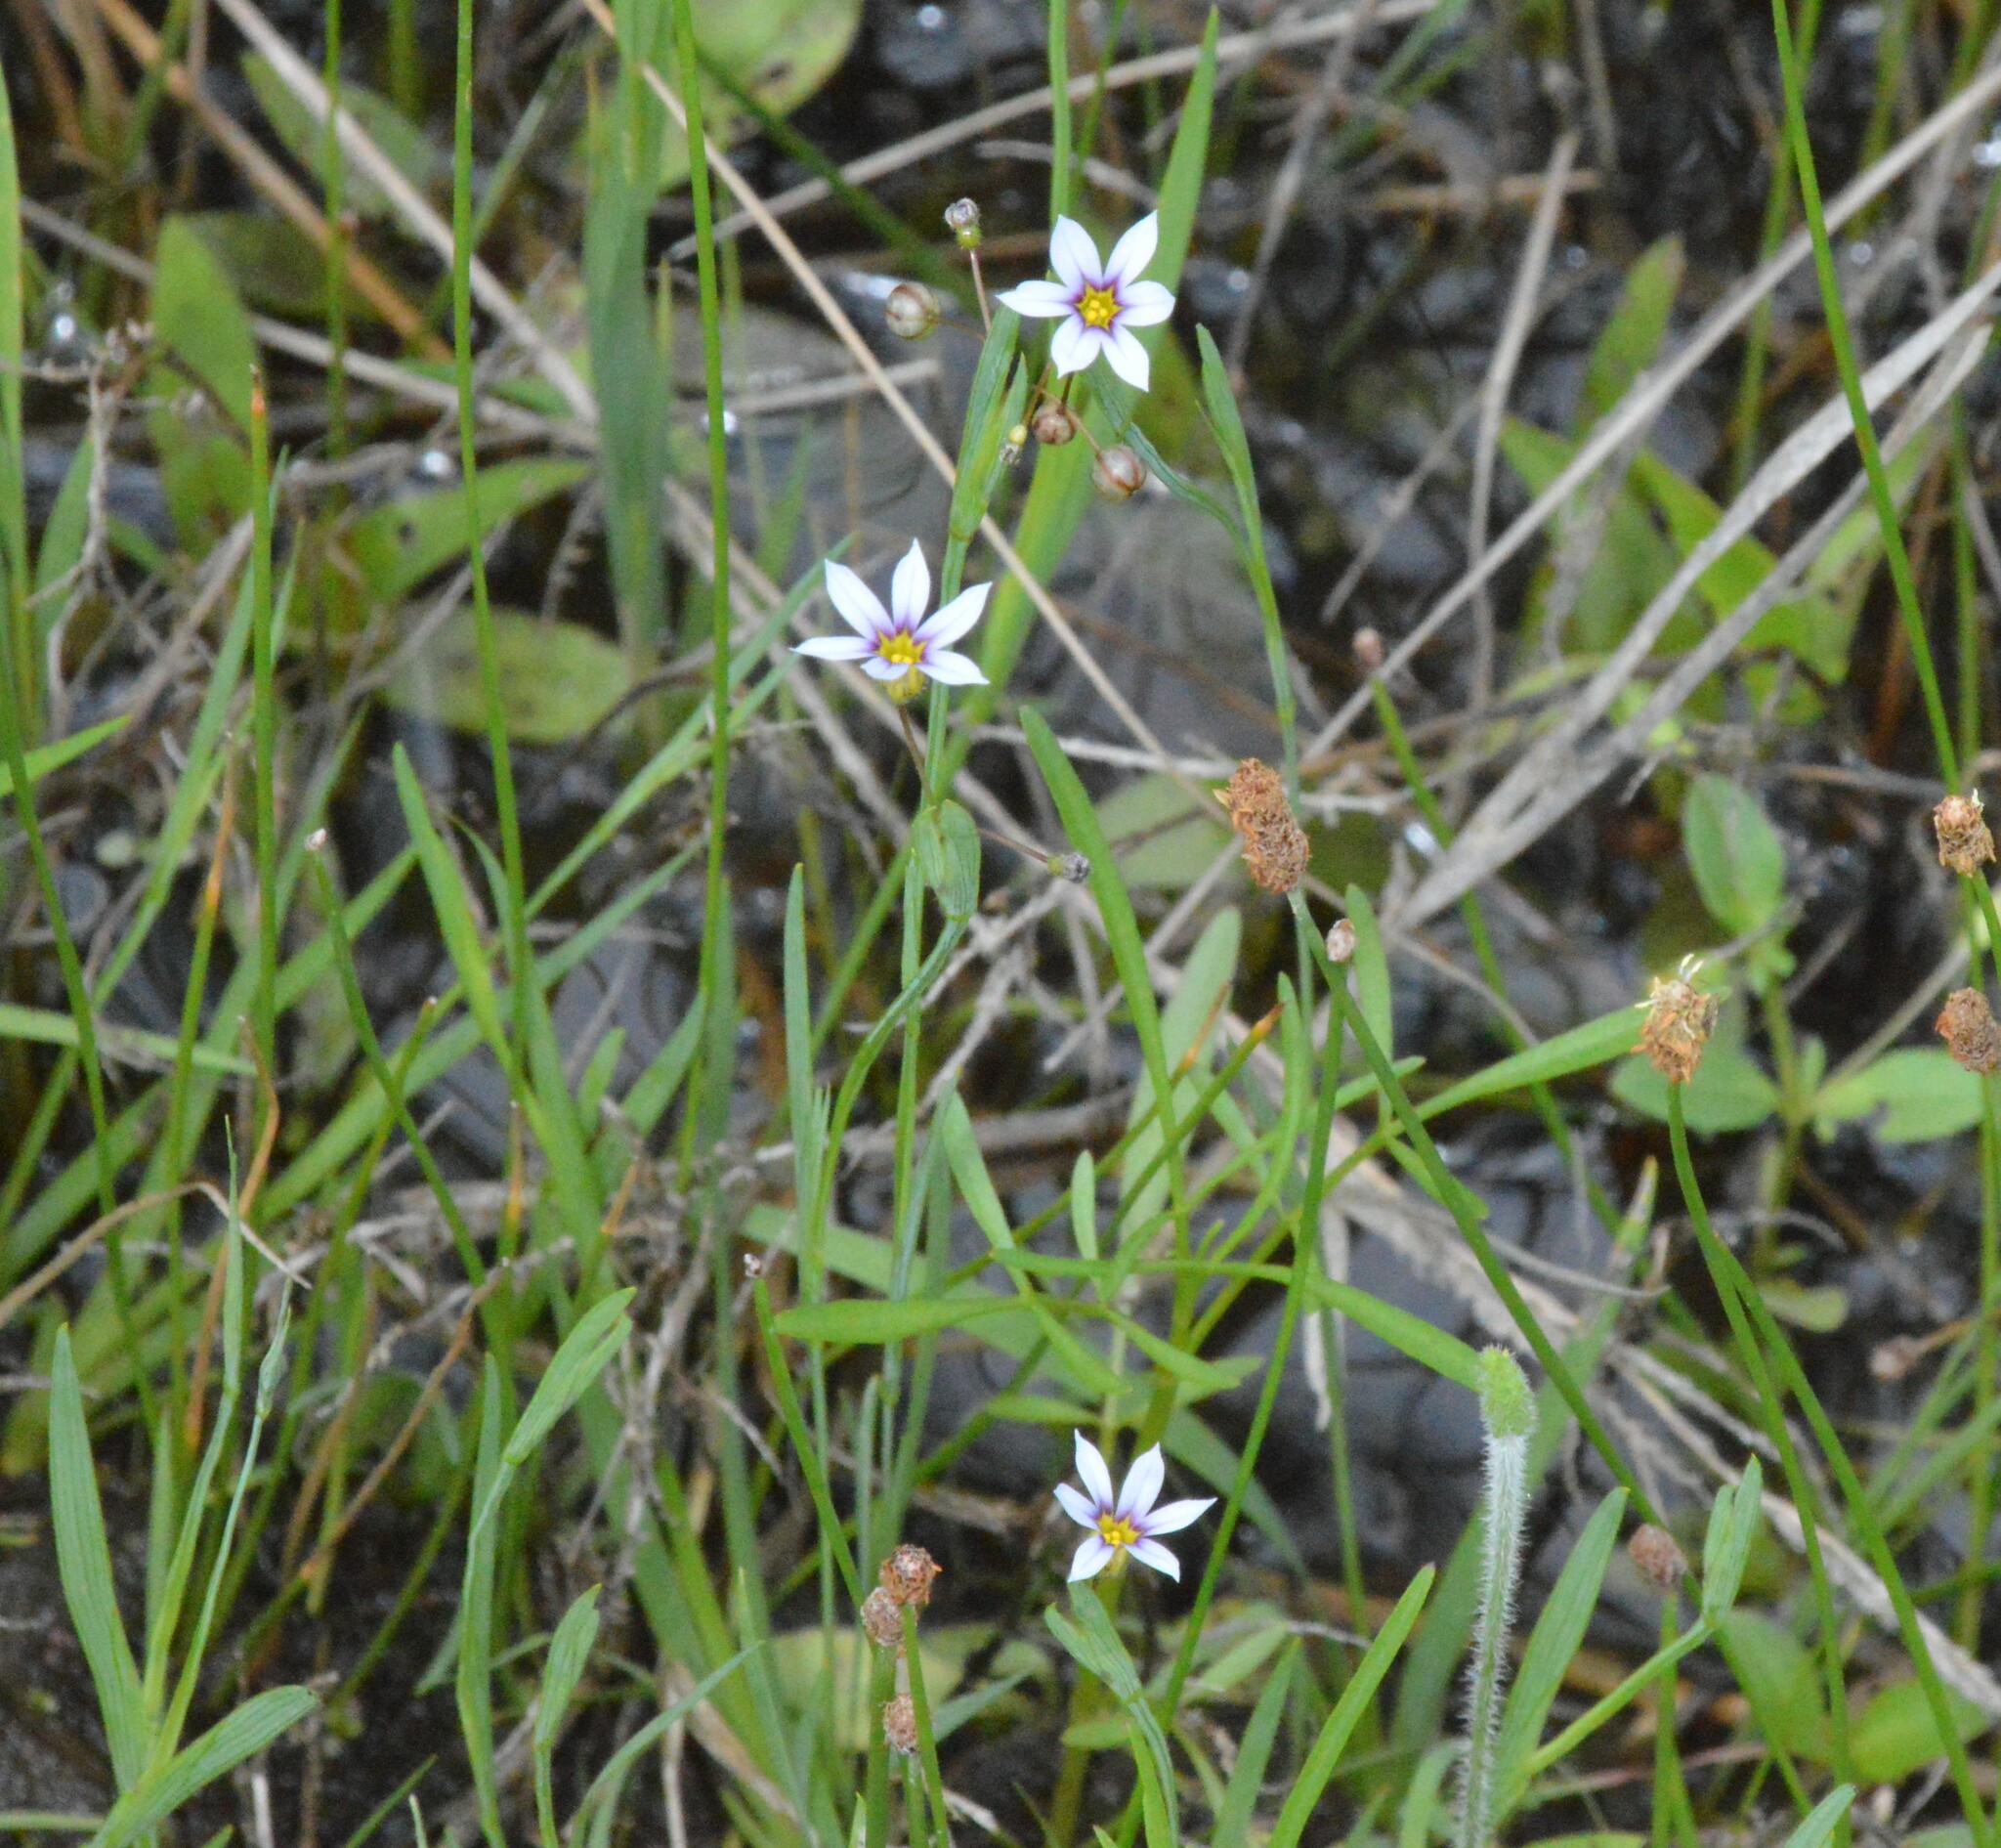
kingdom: Plantae
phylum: Tracheophyta
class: Liliopsida
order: Asparagales
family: Iridaceae
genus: Sisyrinchium
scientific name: Sisyrinchium micranthum
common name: Bermuda pigroot
